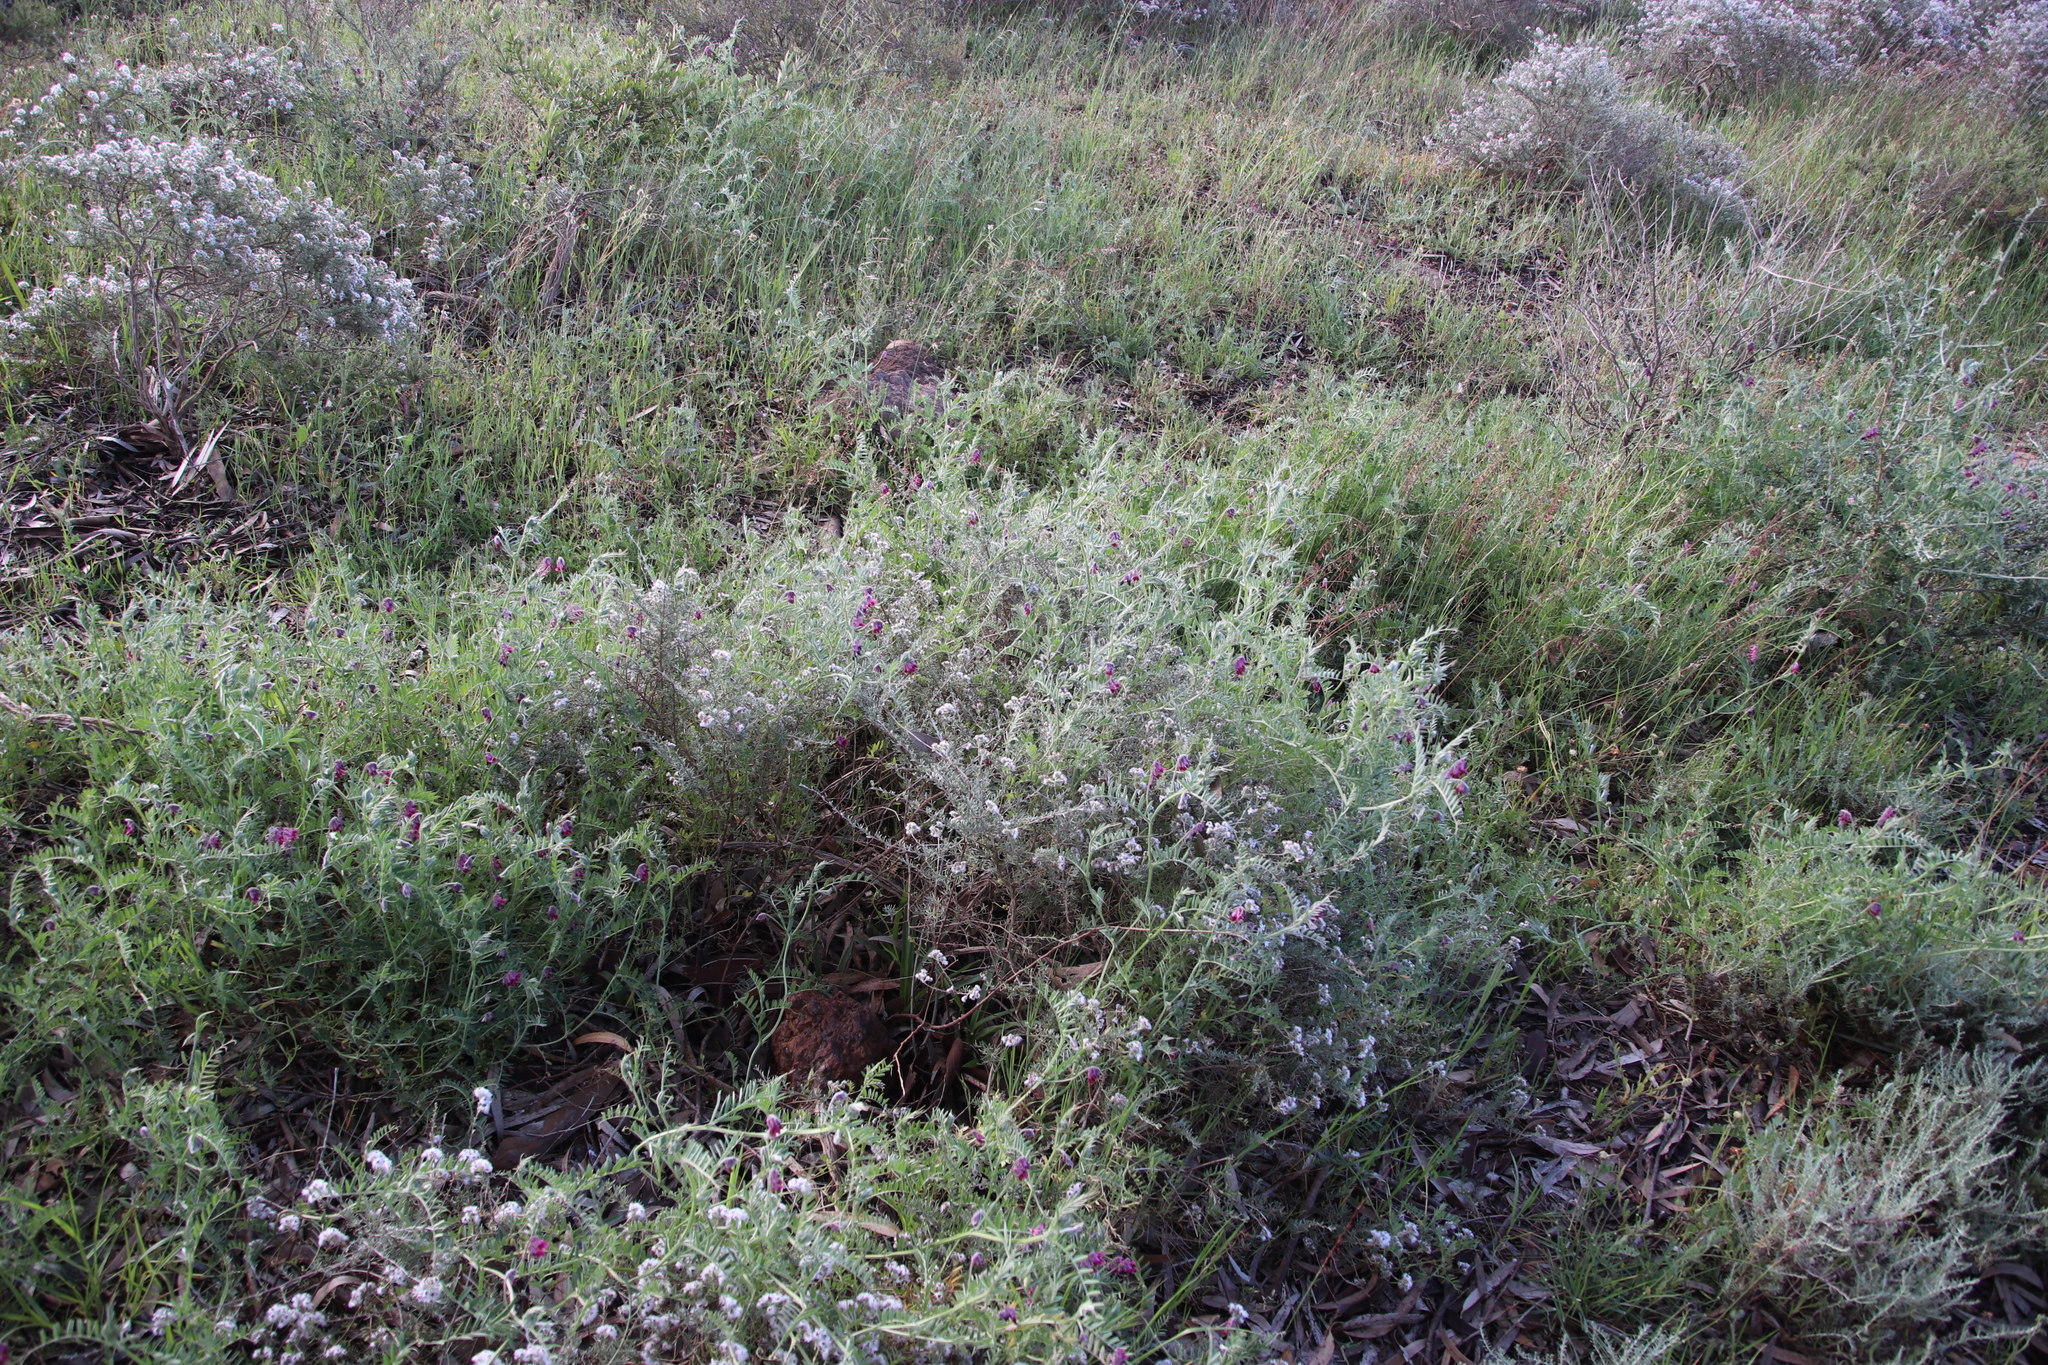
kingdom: Plantae
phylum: Tracheophyta
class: Magnoliopsida
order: Fabales
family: Fabaceae
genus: Vicia
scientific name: Vicia benghalensis
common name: Purple vetch
